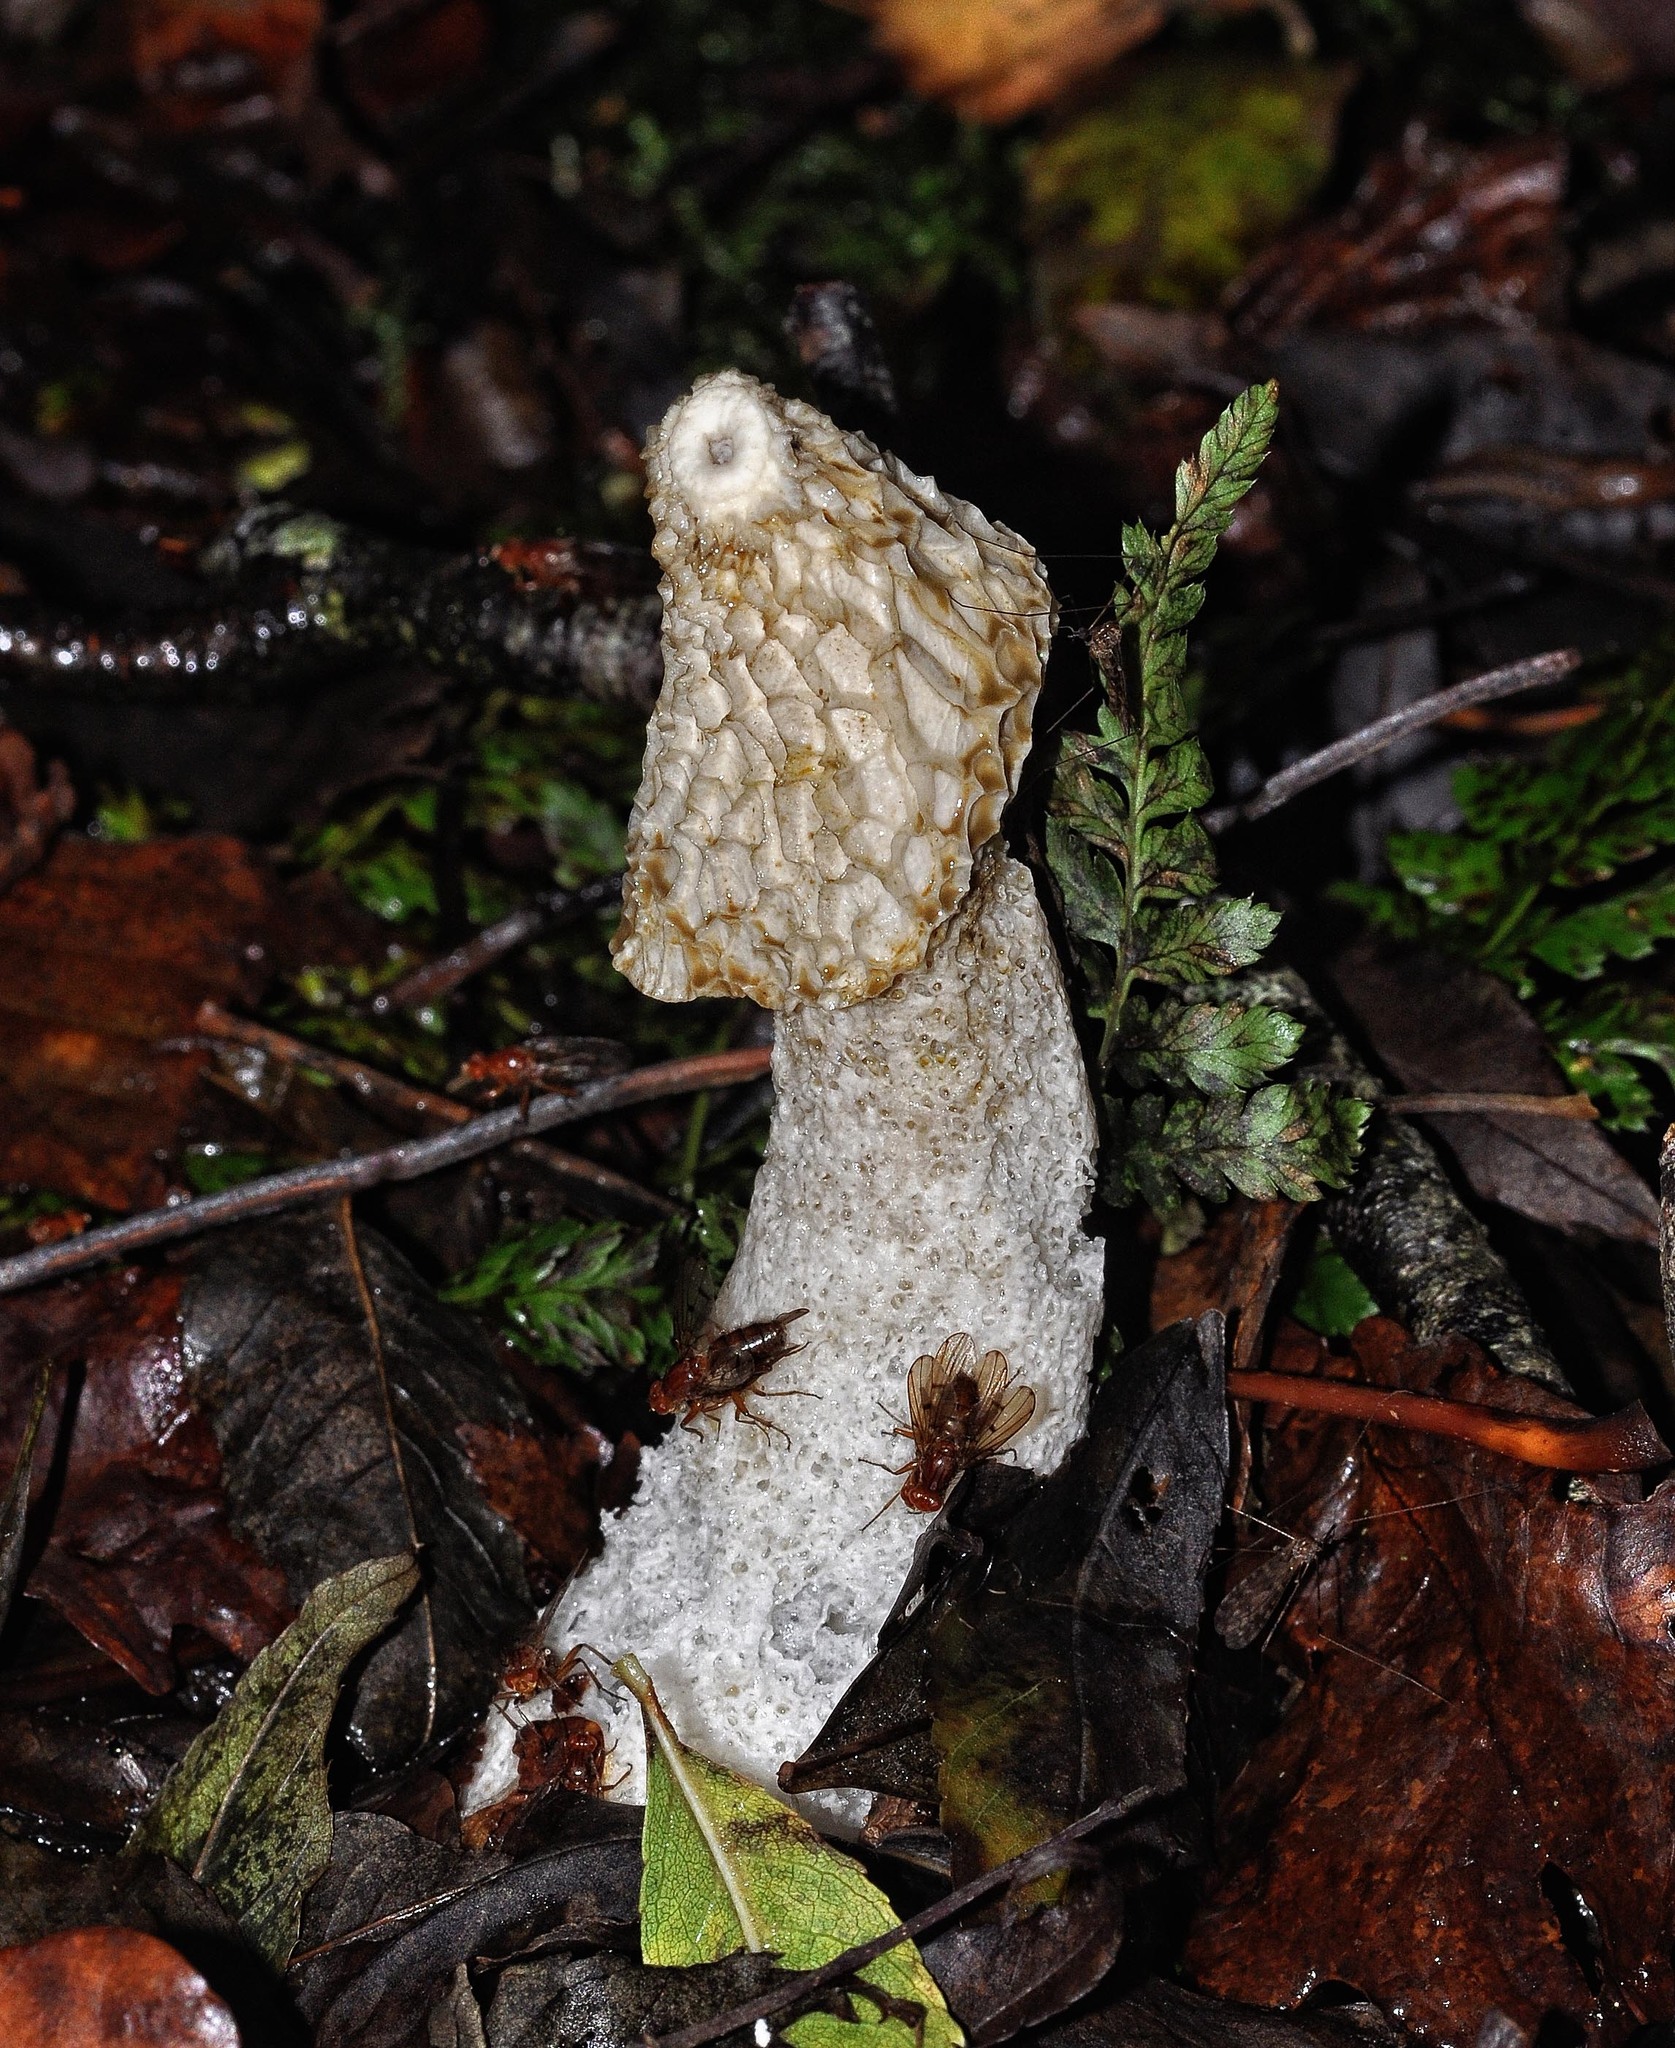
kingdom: Fungi
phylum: Basidiomycota
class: Agaricomycetes
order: Phallales
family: Phallaceae
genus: Phallus
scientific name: Phallus impudicus
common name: Common stinkhorn
